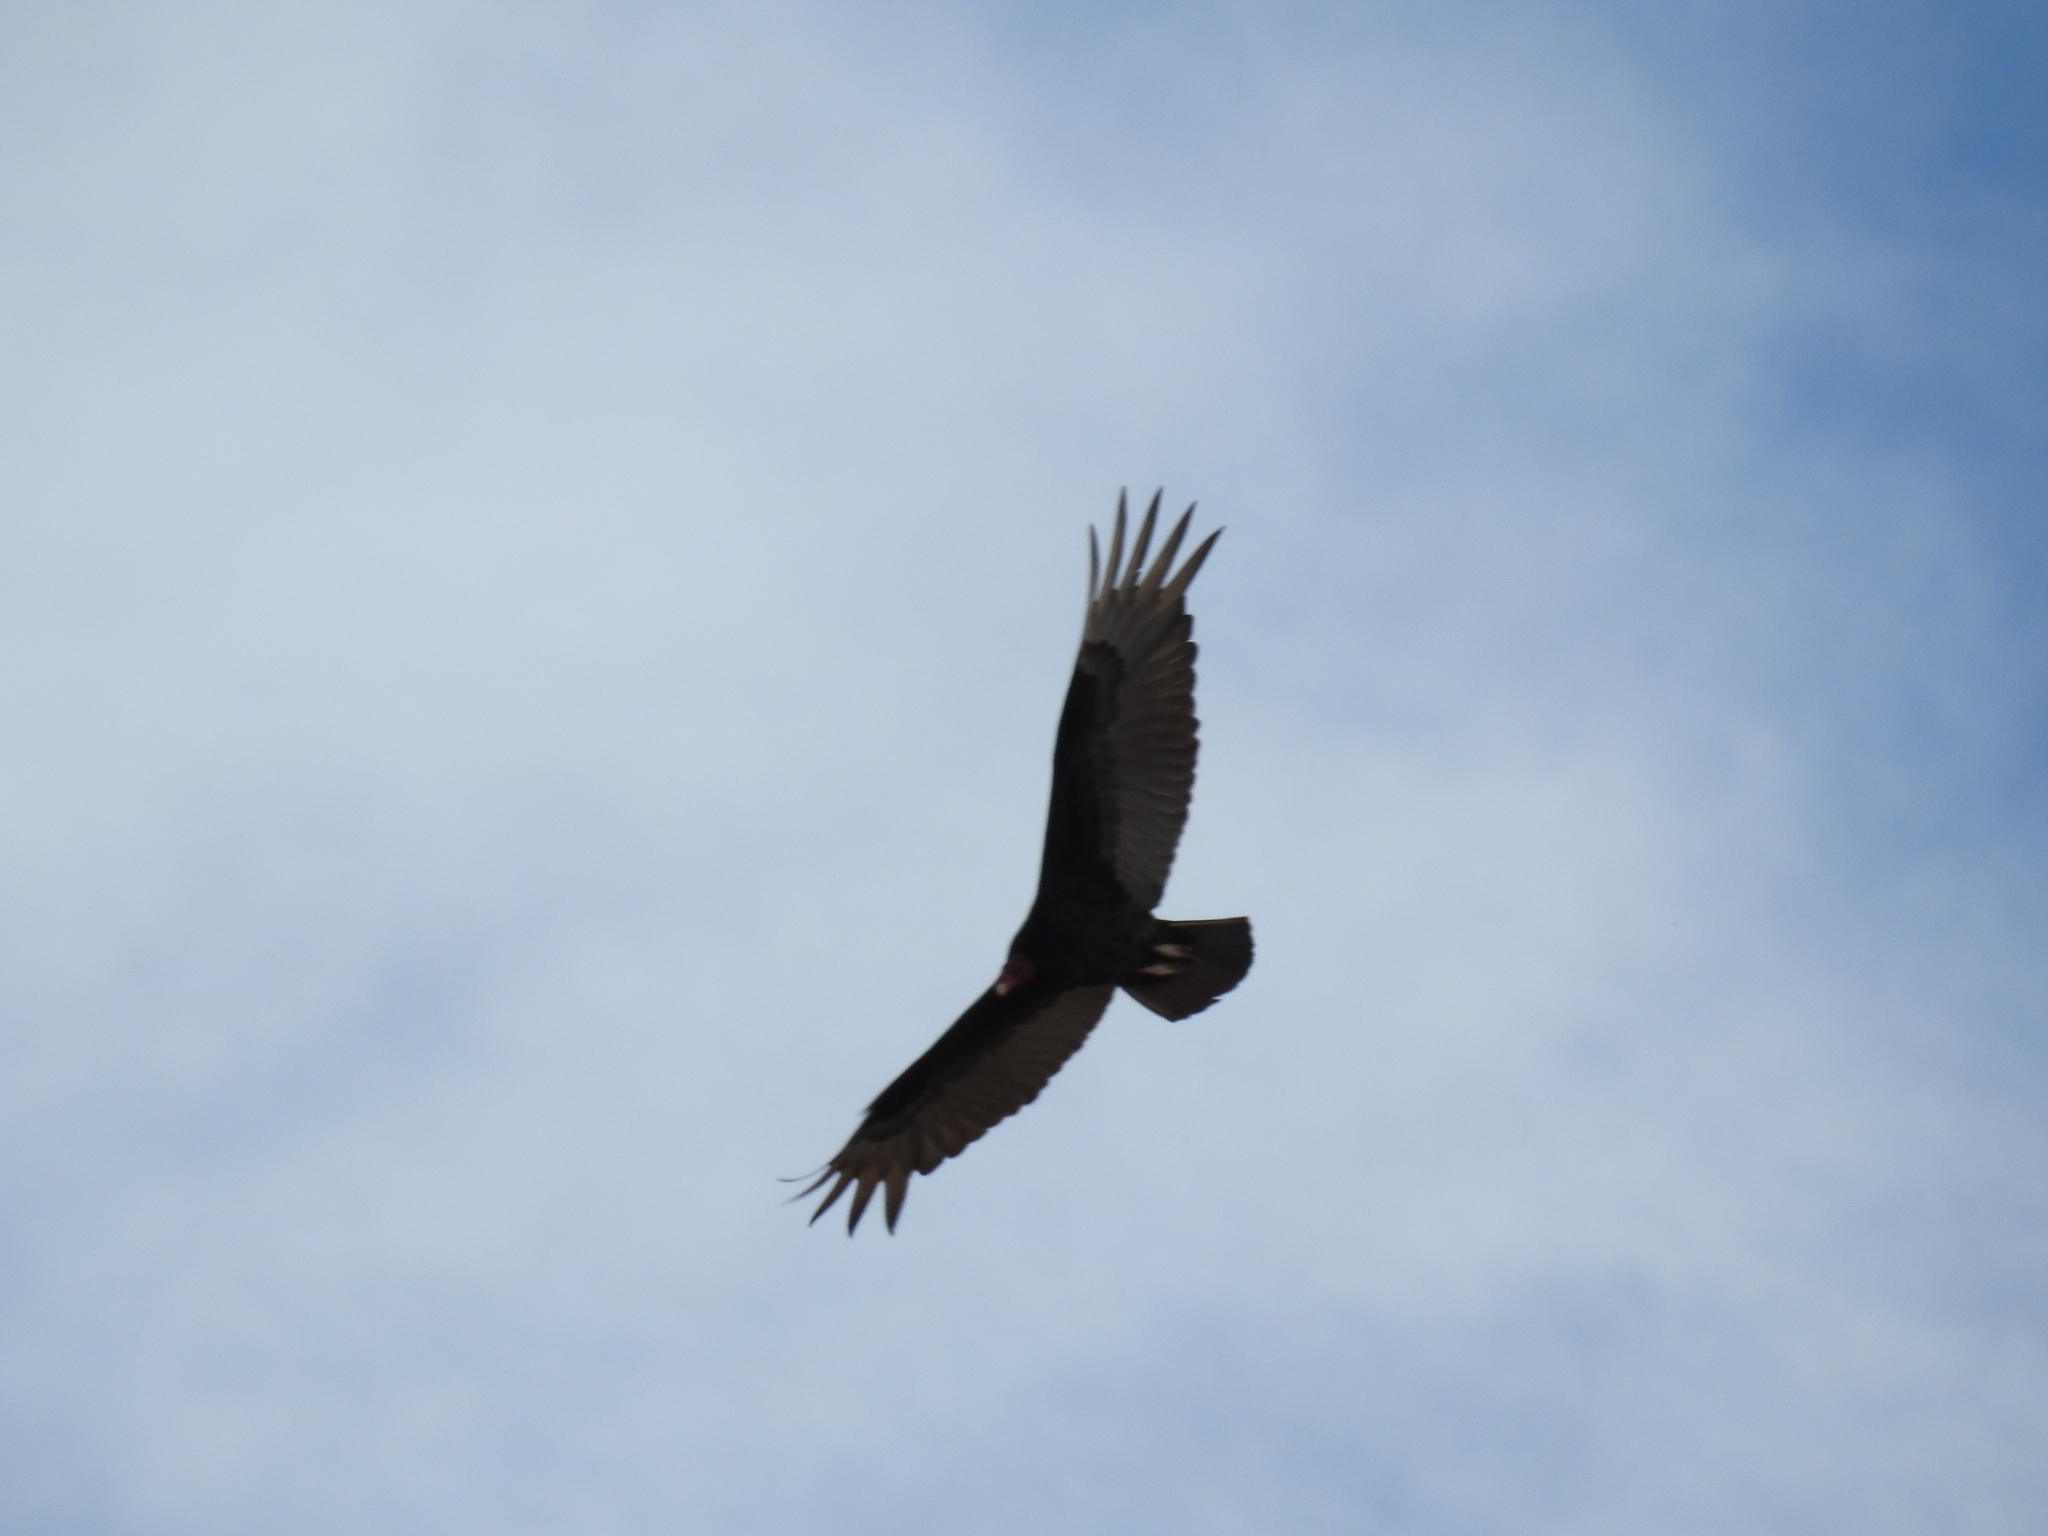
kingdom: Animalia
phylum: Chordata
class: Aves
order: Accipitriformes
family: Cathartidae
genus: Cathartes
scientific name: Cathartes aura
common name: Turkey vulture
